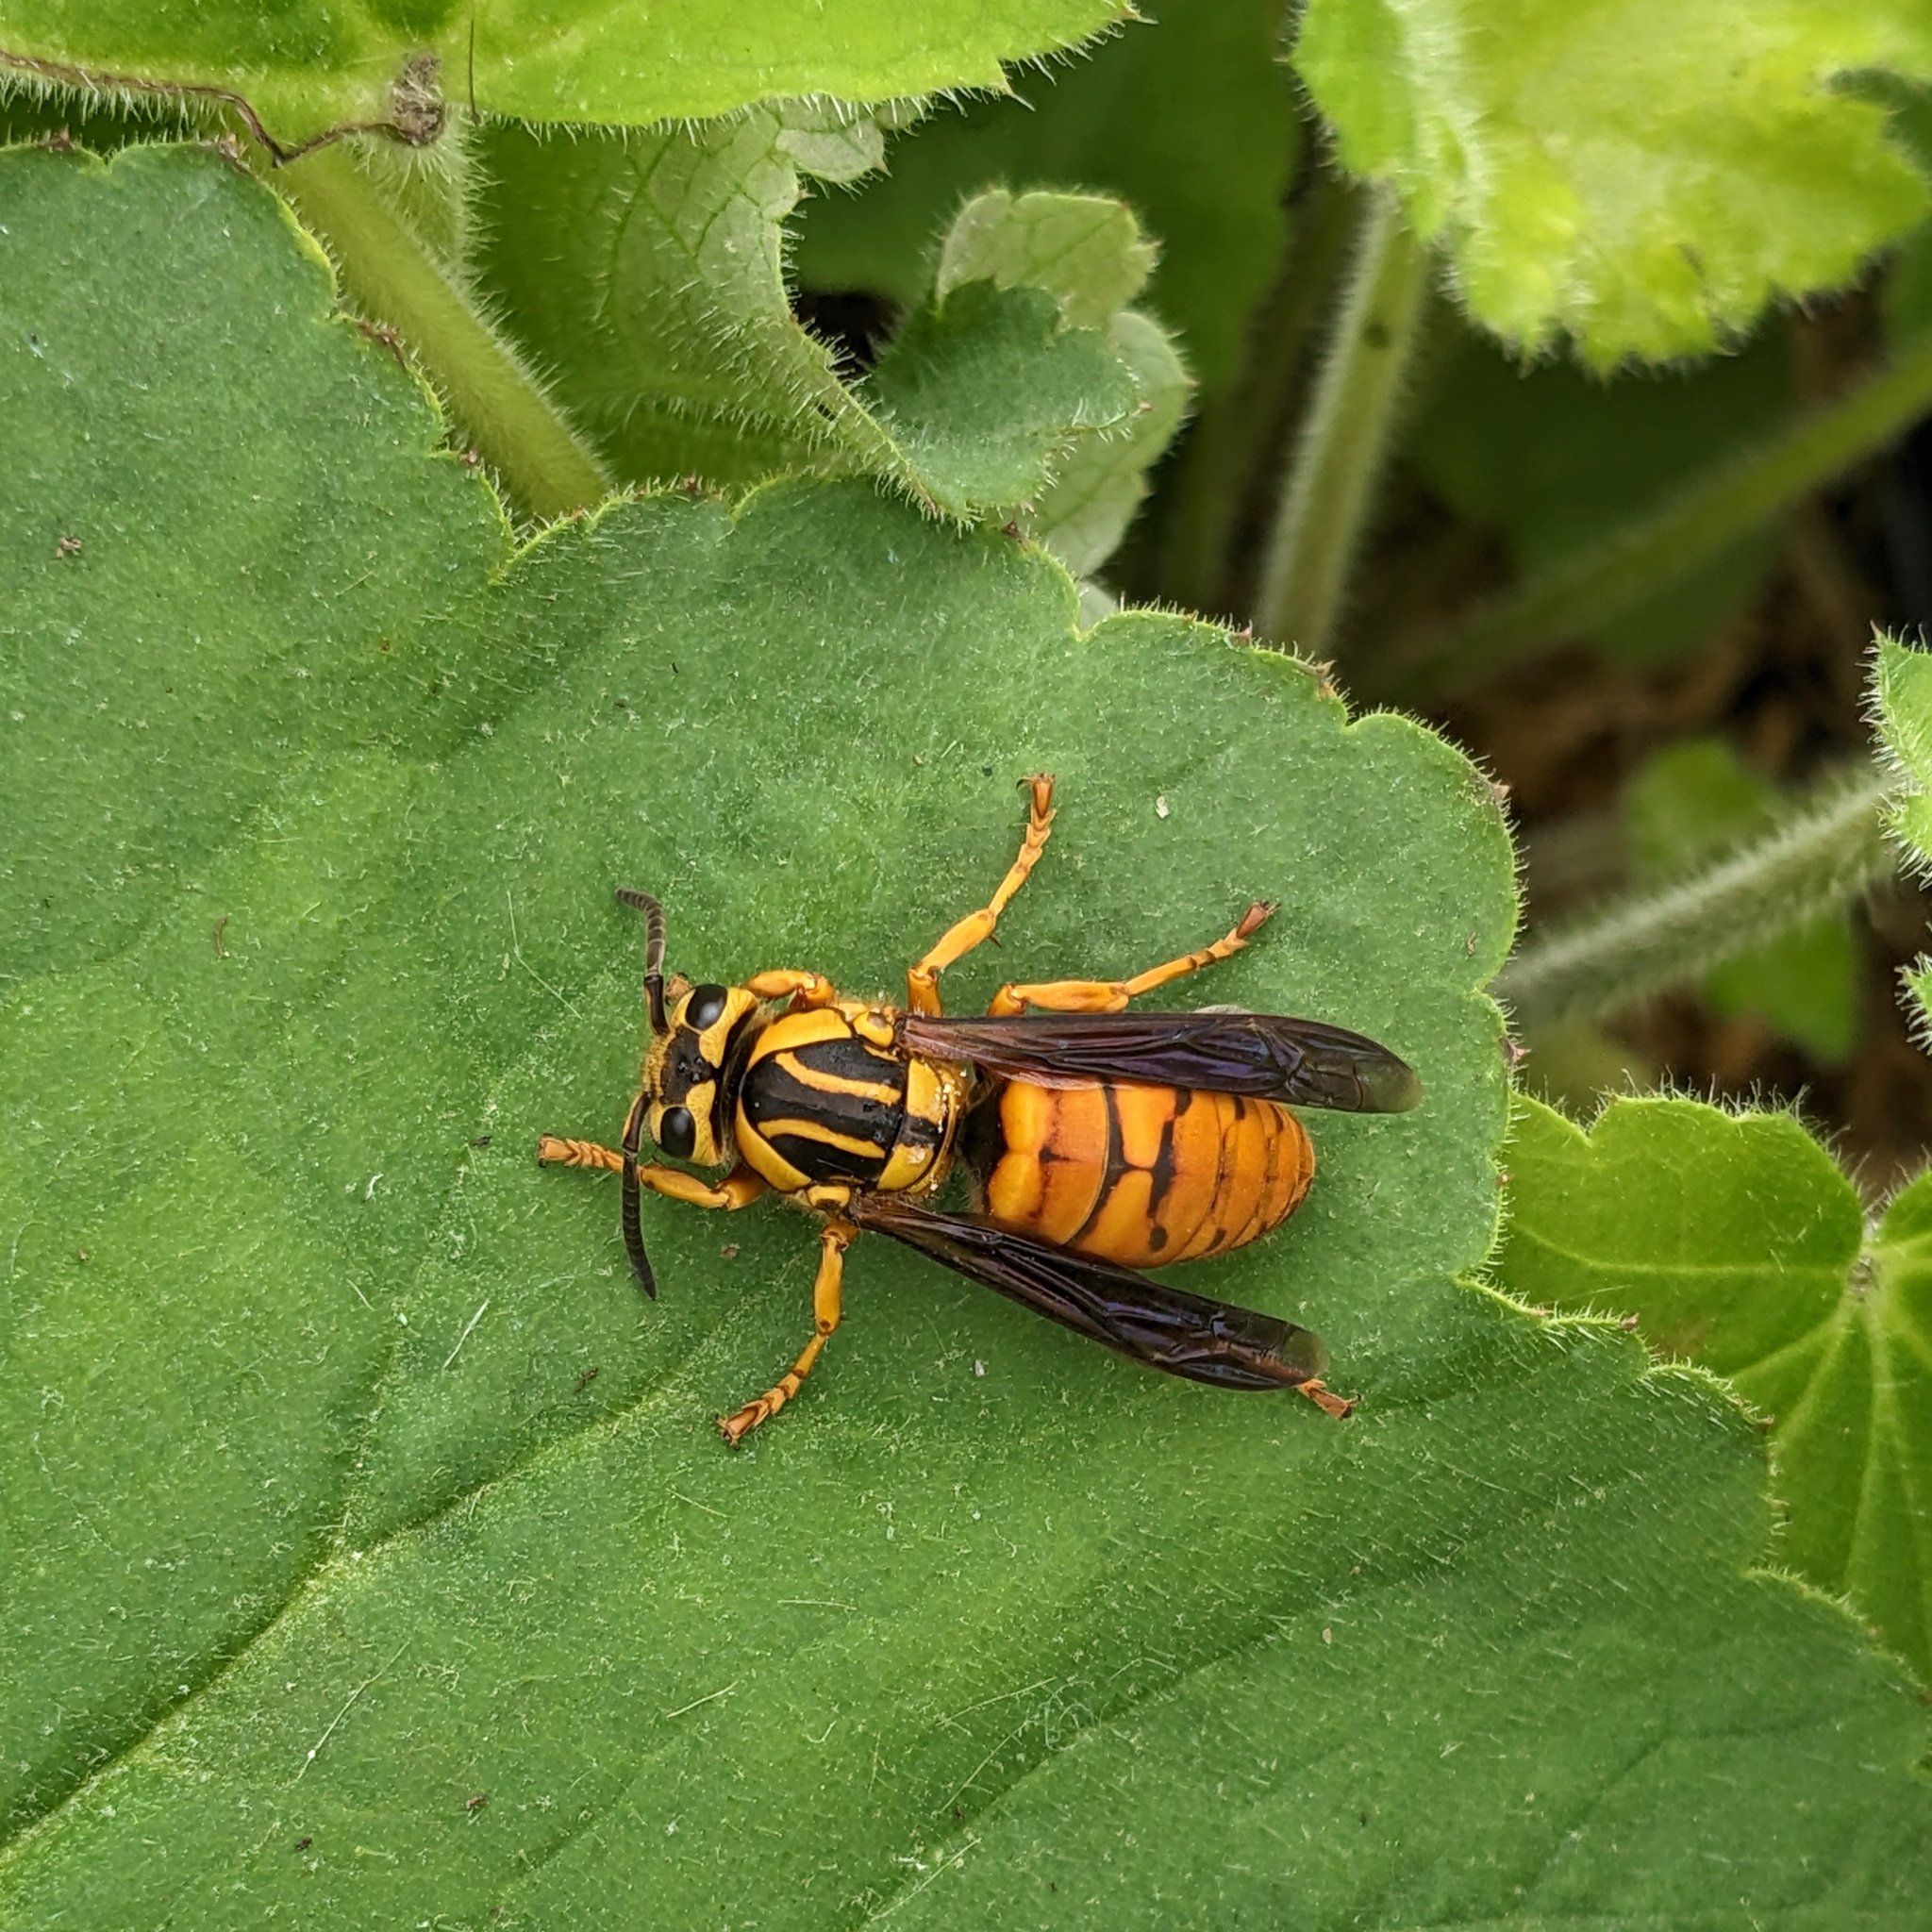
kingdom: Animalia
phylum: Arthropoda
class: Insecta
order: Hymenoptera
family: Vespidae
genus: Vespula
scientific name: Vespula squamosa
